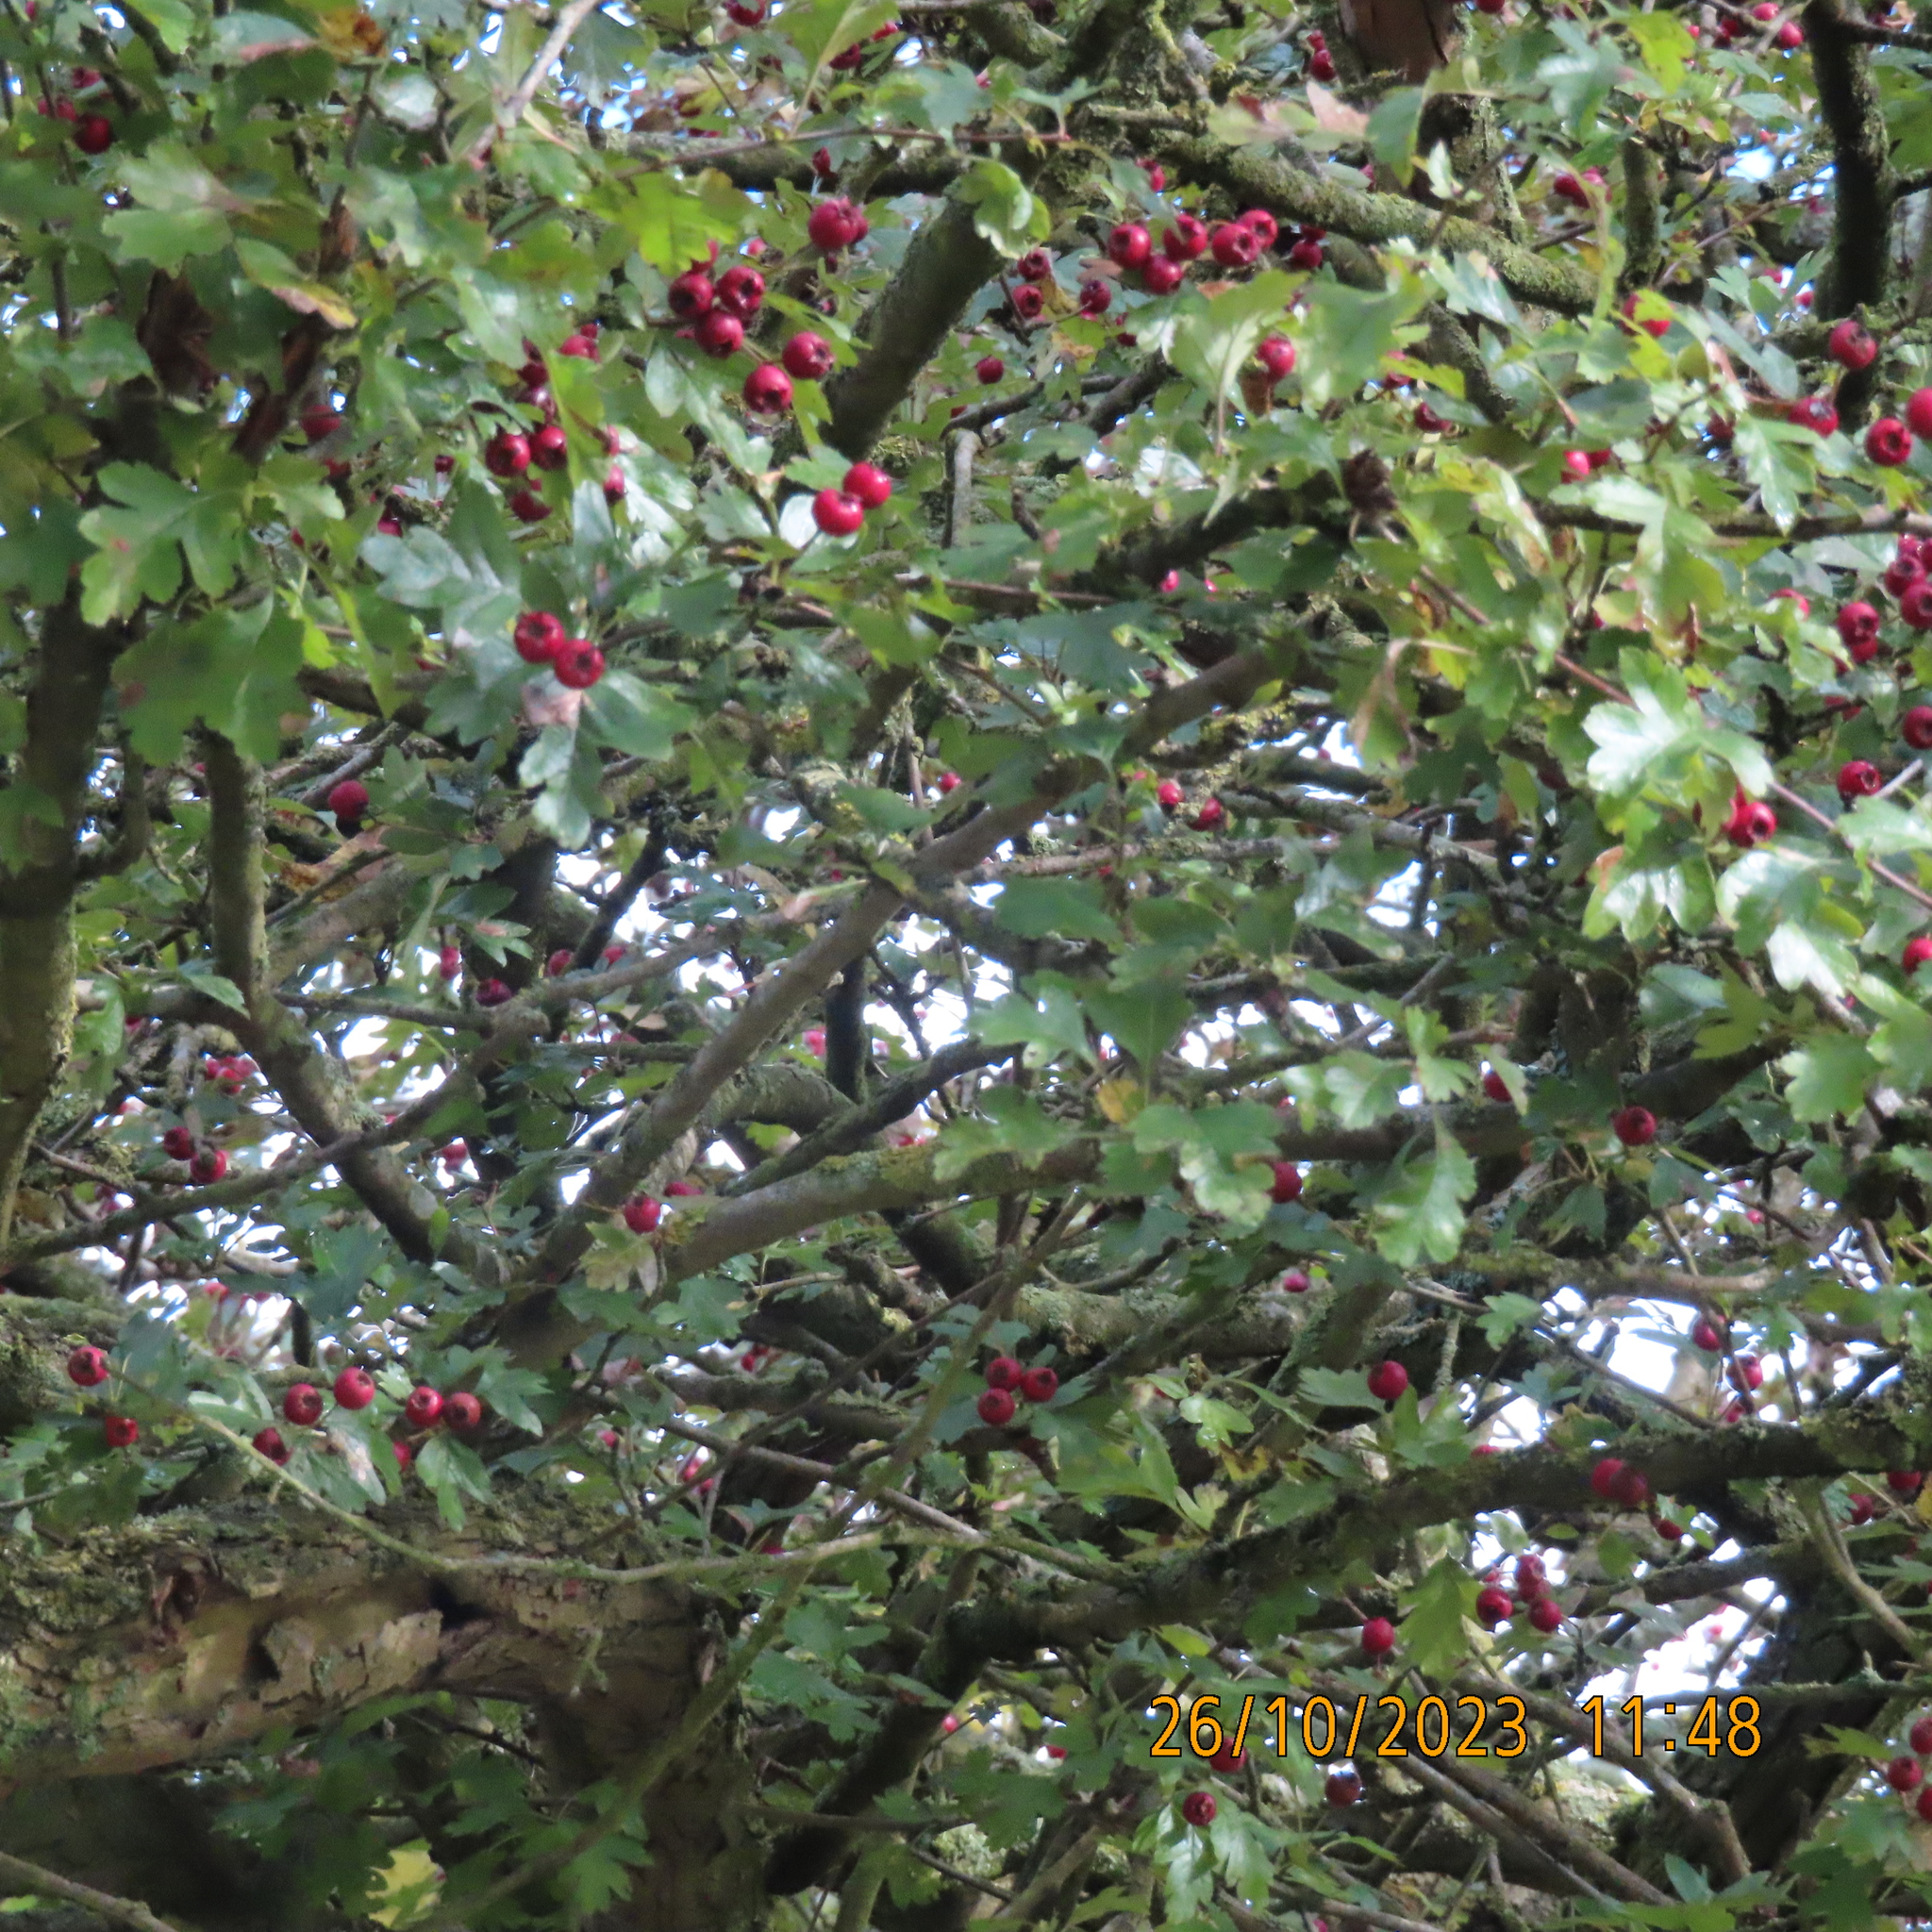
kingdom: Plantae
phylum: Tracheophyta
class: Magnoliopsida
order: Rosales
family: Rosaceae
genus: Crataegus
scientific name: Crataegus monogyna
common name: Hawthorn
